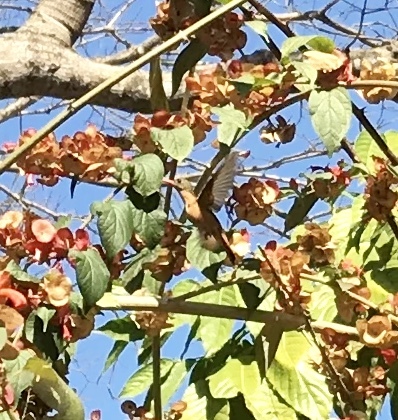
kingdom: Animalia
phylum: Chordata
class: Aves
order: Apodiformes
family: Trochilidae
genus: Amazilia
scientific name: Amazilia rutila
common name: Cinnamon hummingbird
